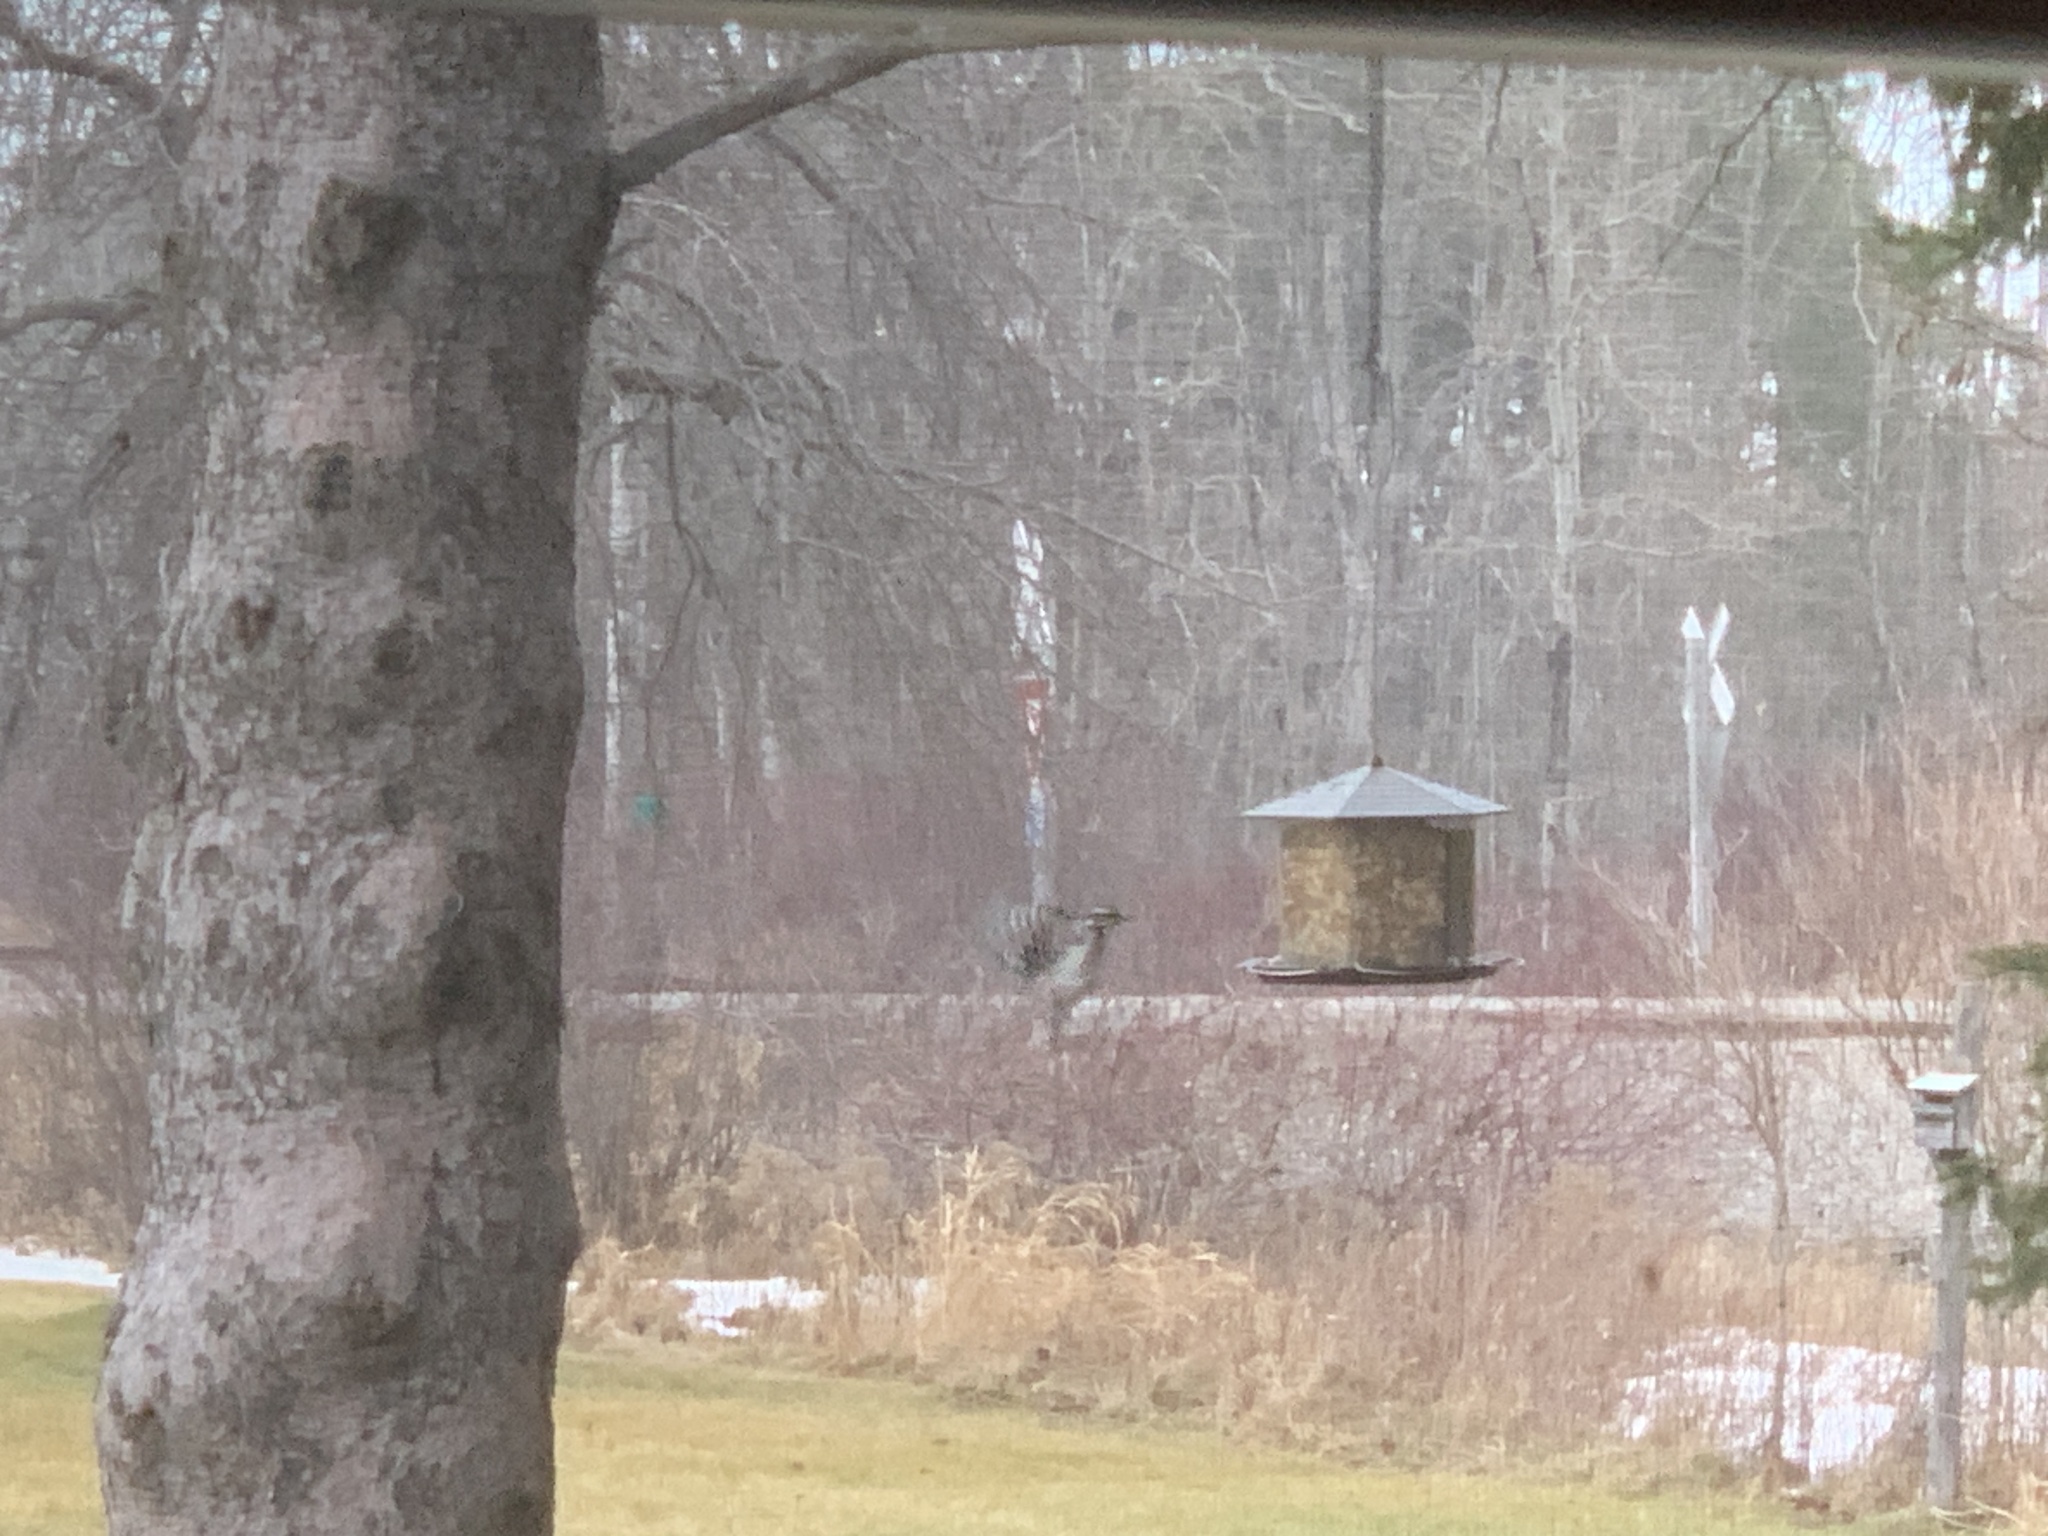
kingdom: Animalia
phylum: Chordata
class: Aves
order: Piciformes
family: Picidae
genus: Leuconotopicus
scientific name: Leuconotopicus villosus
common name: Hairy woodpecker
